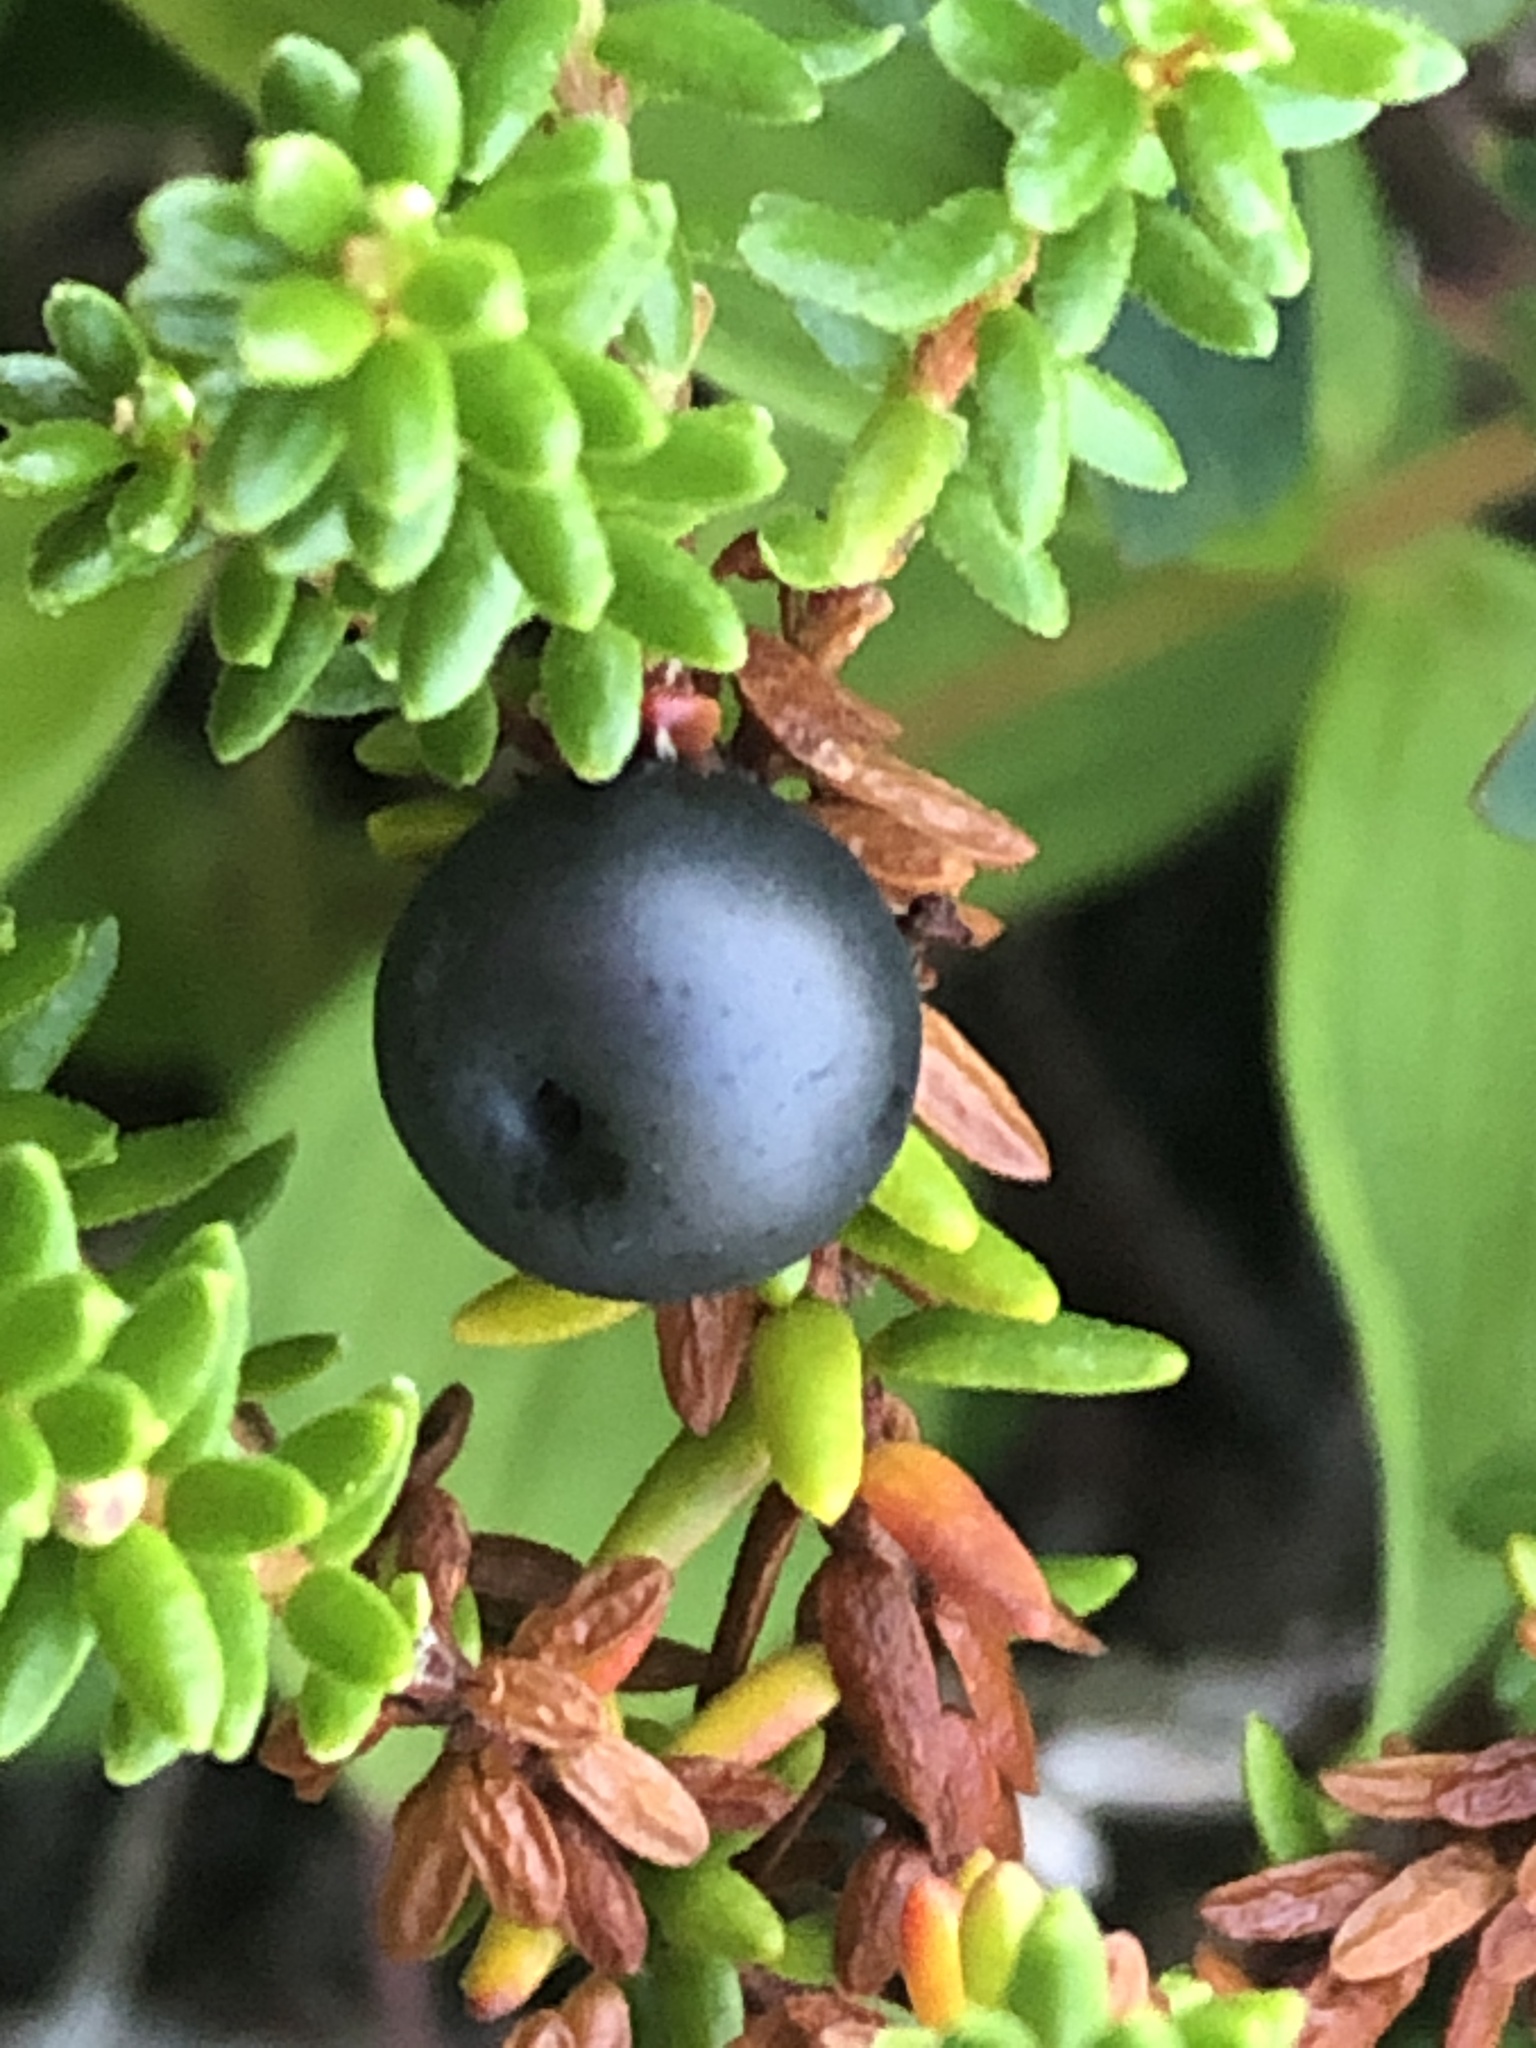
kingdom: Plantae
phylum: Tracheophyta
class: Magnoliopsida
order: Ericales
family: Ericaceae
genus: Empetrum
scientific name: Empetrum nigrum
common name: Black crowberry
